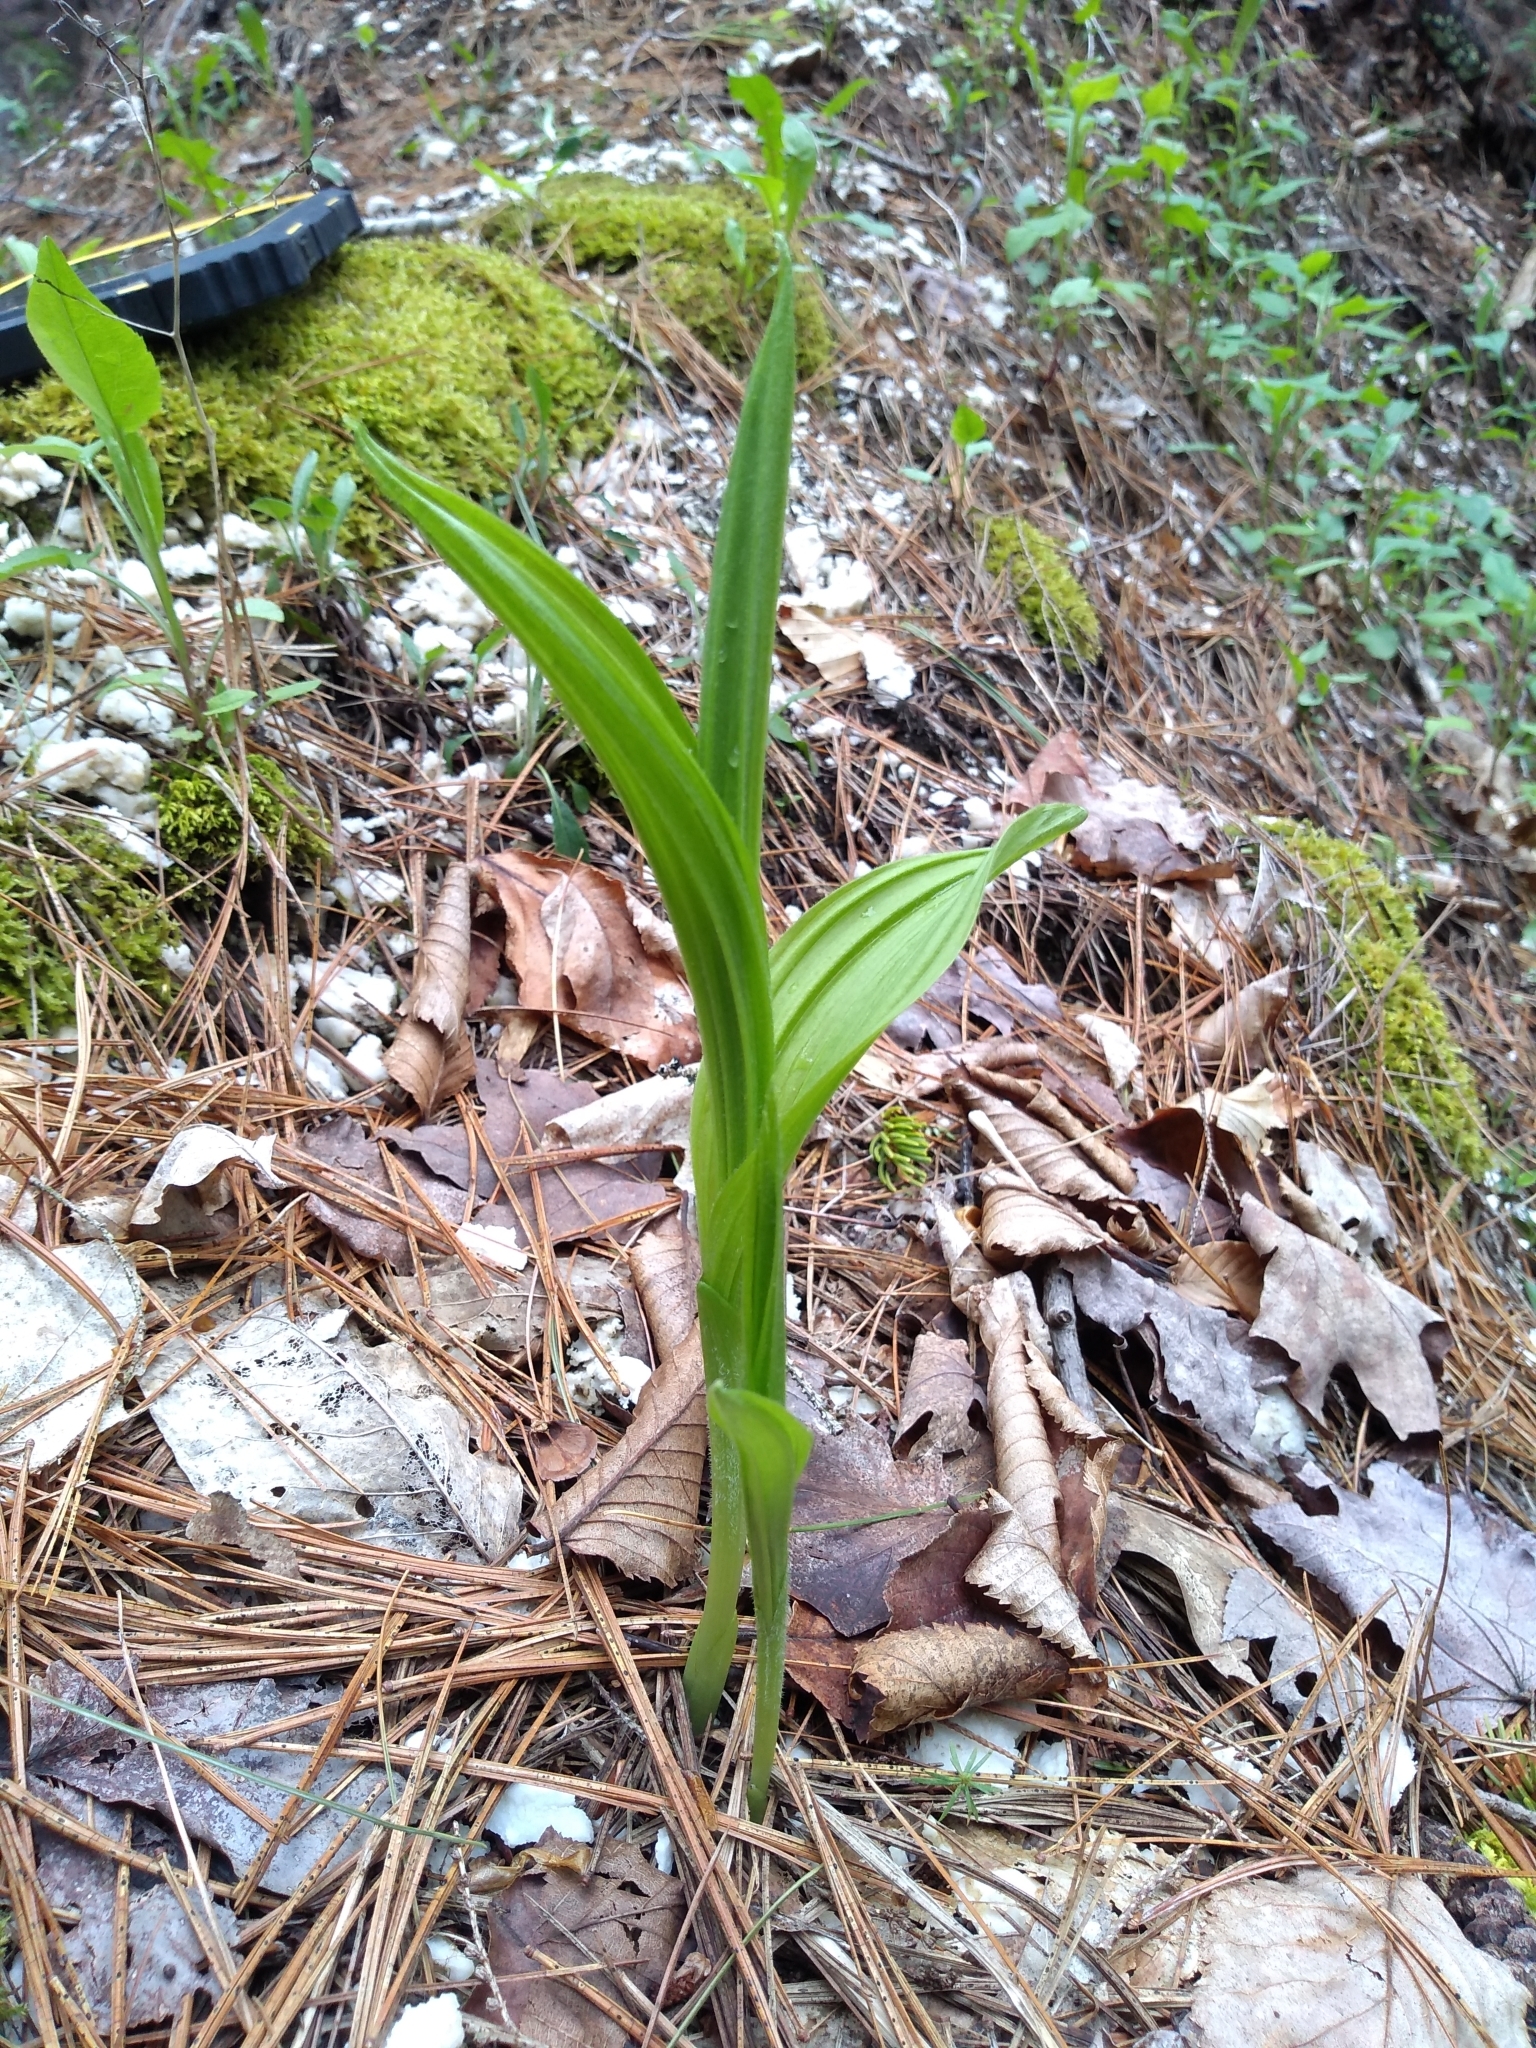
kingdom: Plantae
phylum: Tracheophyta
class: Liliopsida
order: Asparagales
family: Orchidaceae
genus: Cypripedium
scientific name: Cypripedium parviflorum
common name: American yellow lady's-slipper
